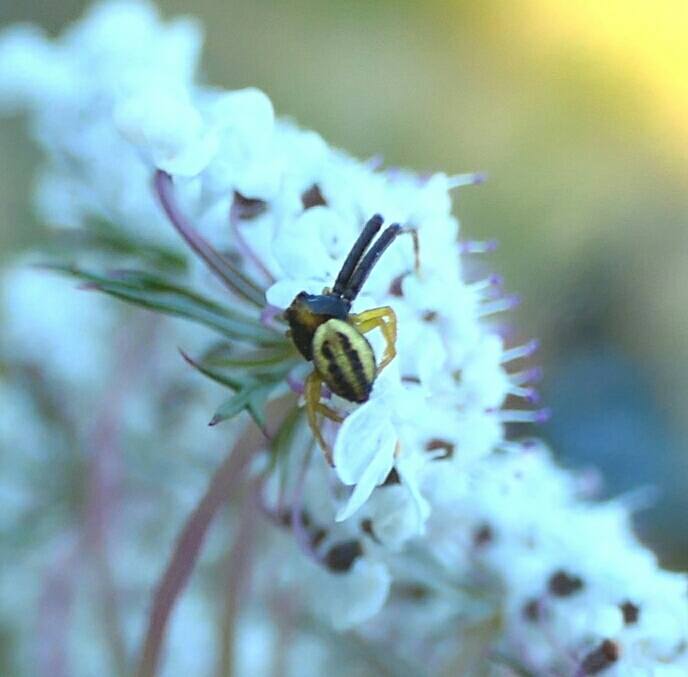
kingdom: Animalia
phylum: Arthropoda
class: Arachnida
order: Araneae
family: Thomisidae
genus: Misumena
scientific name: Misumena vatia
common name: Goldenrod crab spider
